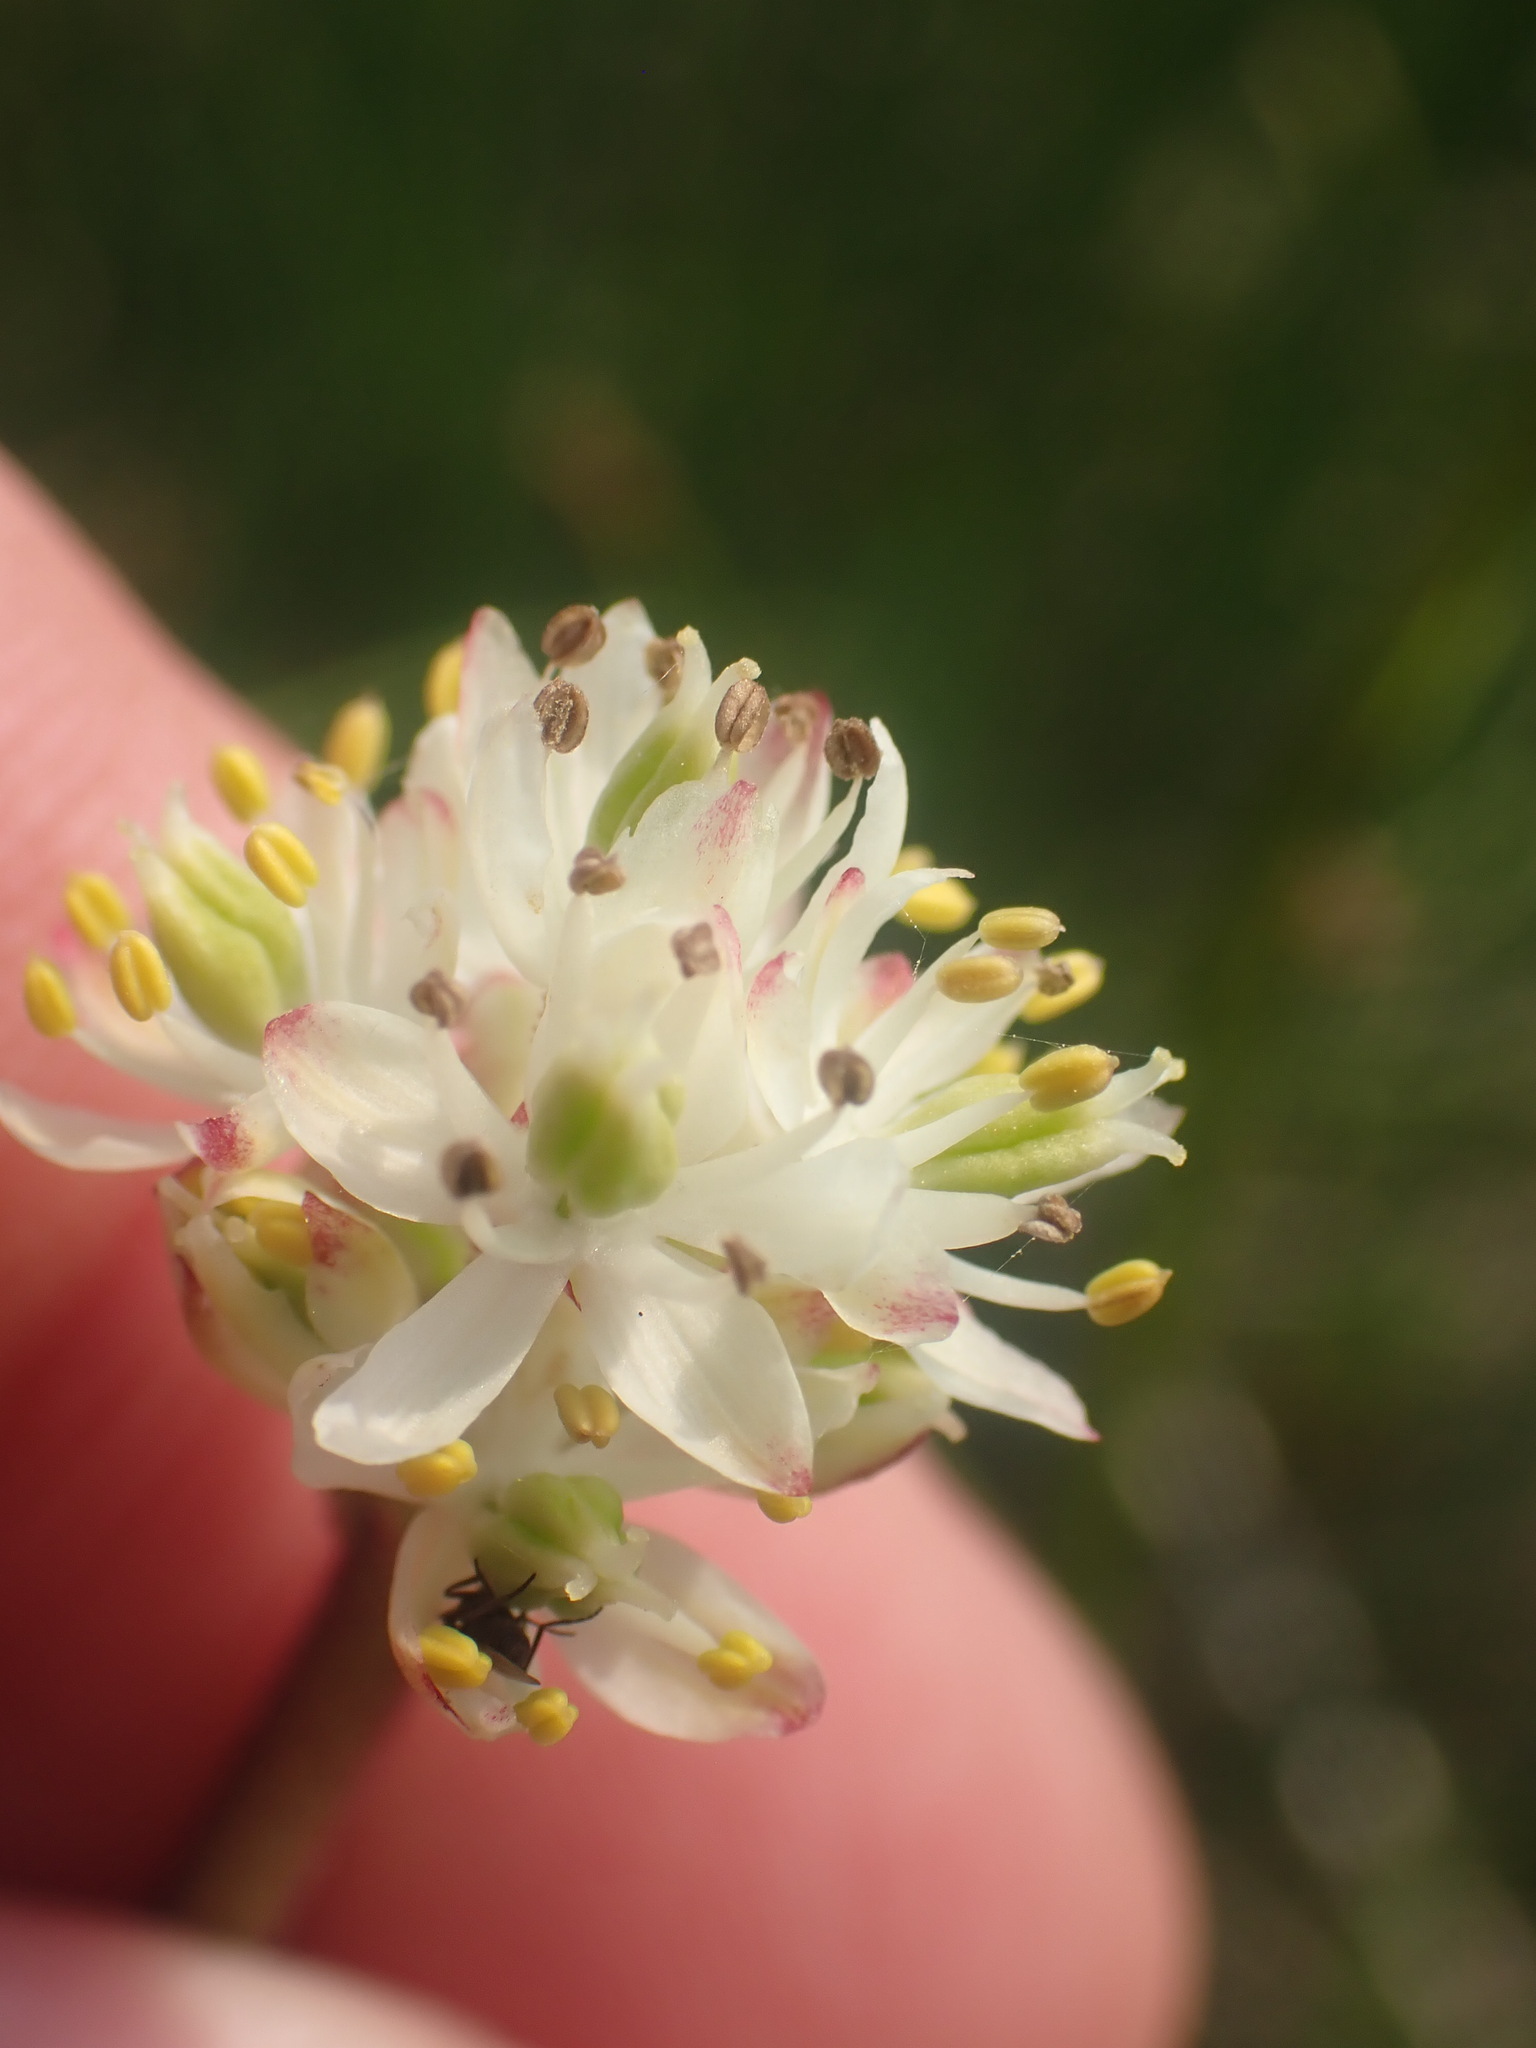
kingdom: Plantae
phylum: Tracheophyta
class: Liliopsida
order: Alismatales
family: Tofieldiaceae
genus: Triantha
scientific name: Triantha occidentalis
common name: Western false asphodel
